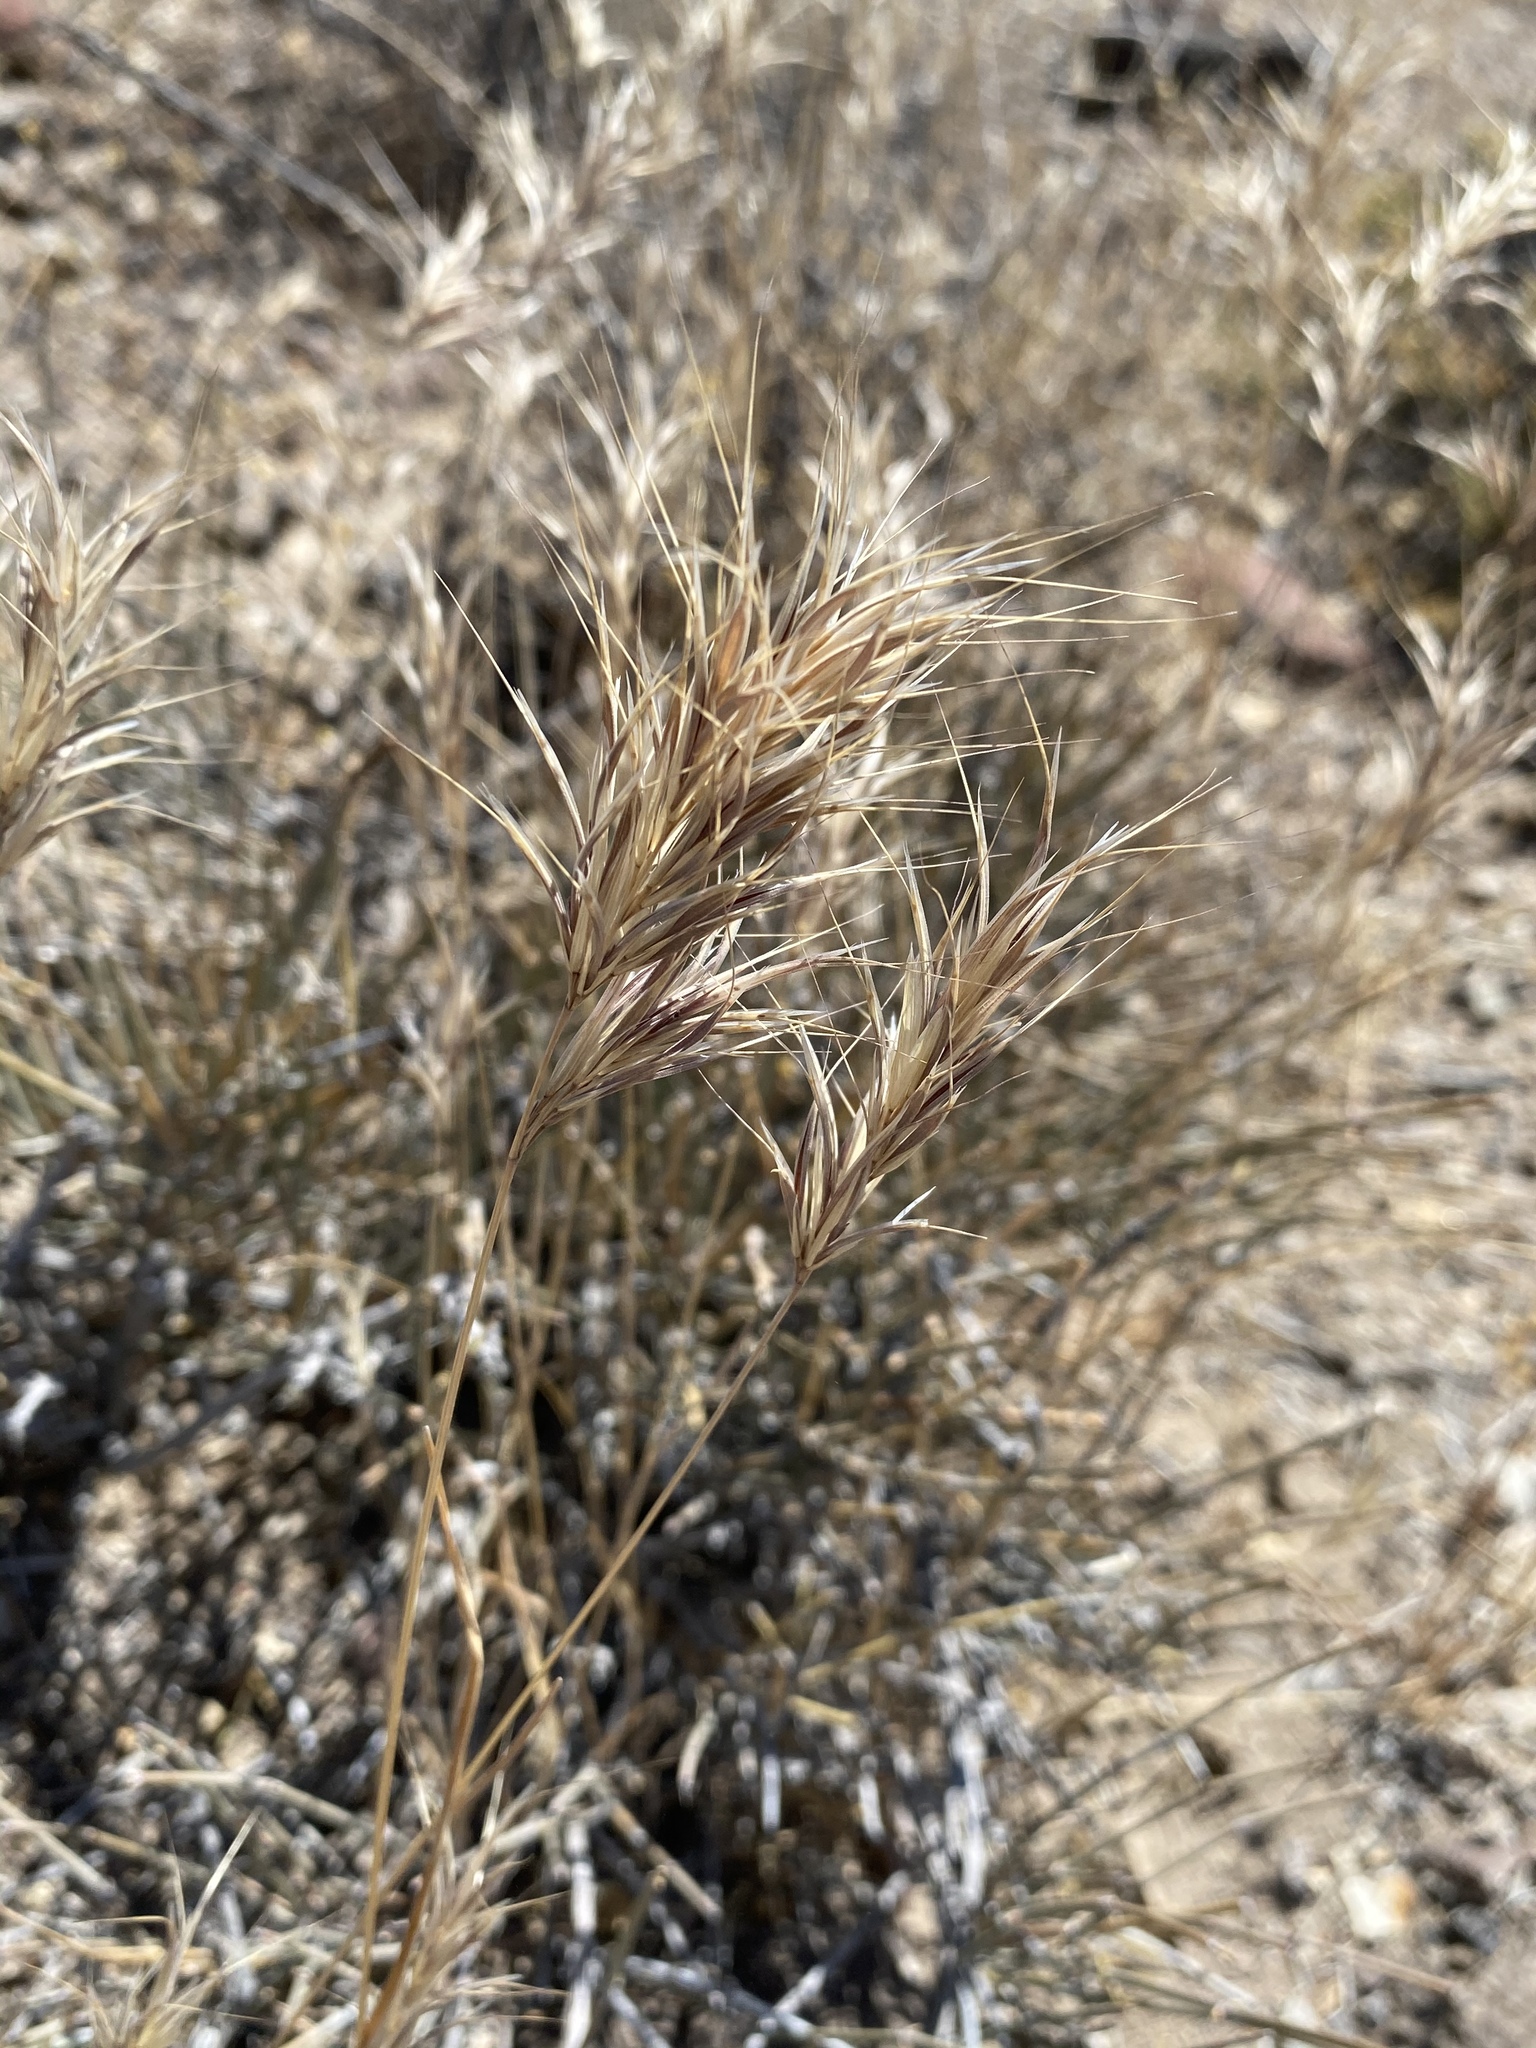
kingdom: Plantae
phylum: Tracheophyta
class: Liliopsida
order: Poales
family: Poaceae
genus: Bromus
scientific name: Bromus rubens
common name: Red brome
